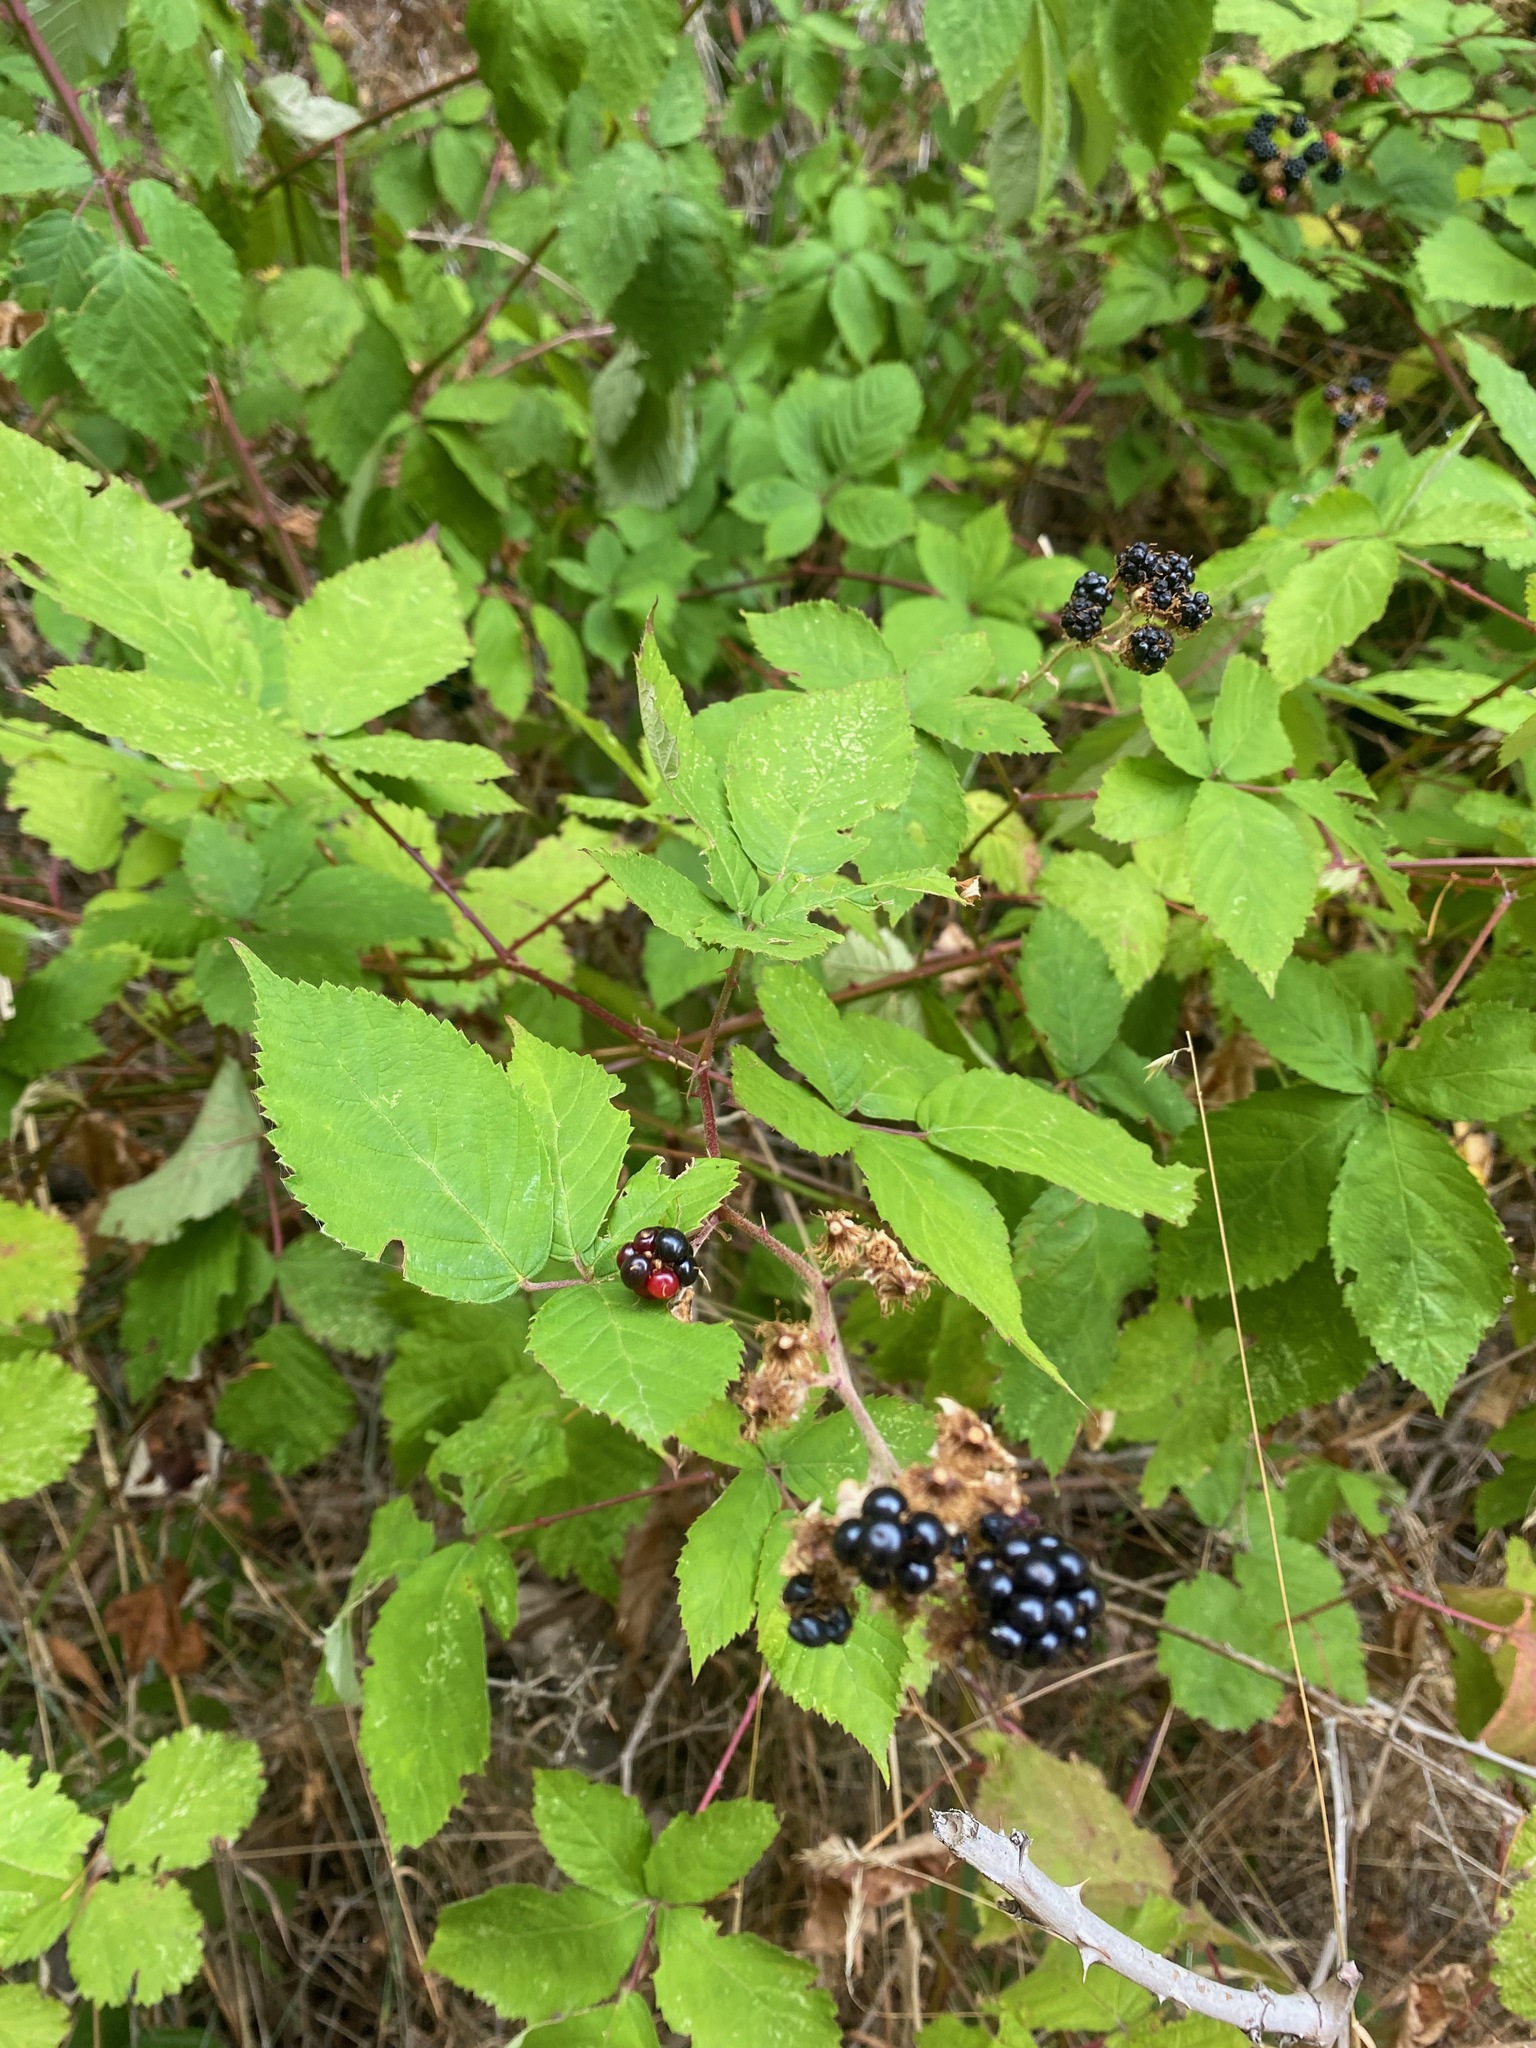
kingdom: Plantae
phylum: Tracheophyta
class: Magnoliopsida
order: Rosales
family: Rosaceae
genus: Rubus
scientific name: Rubus bifrons
